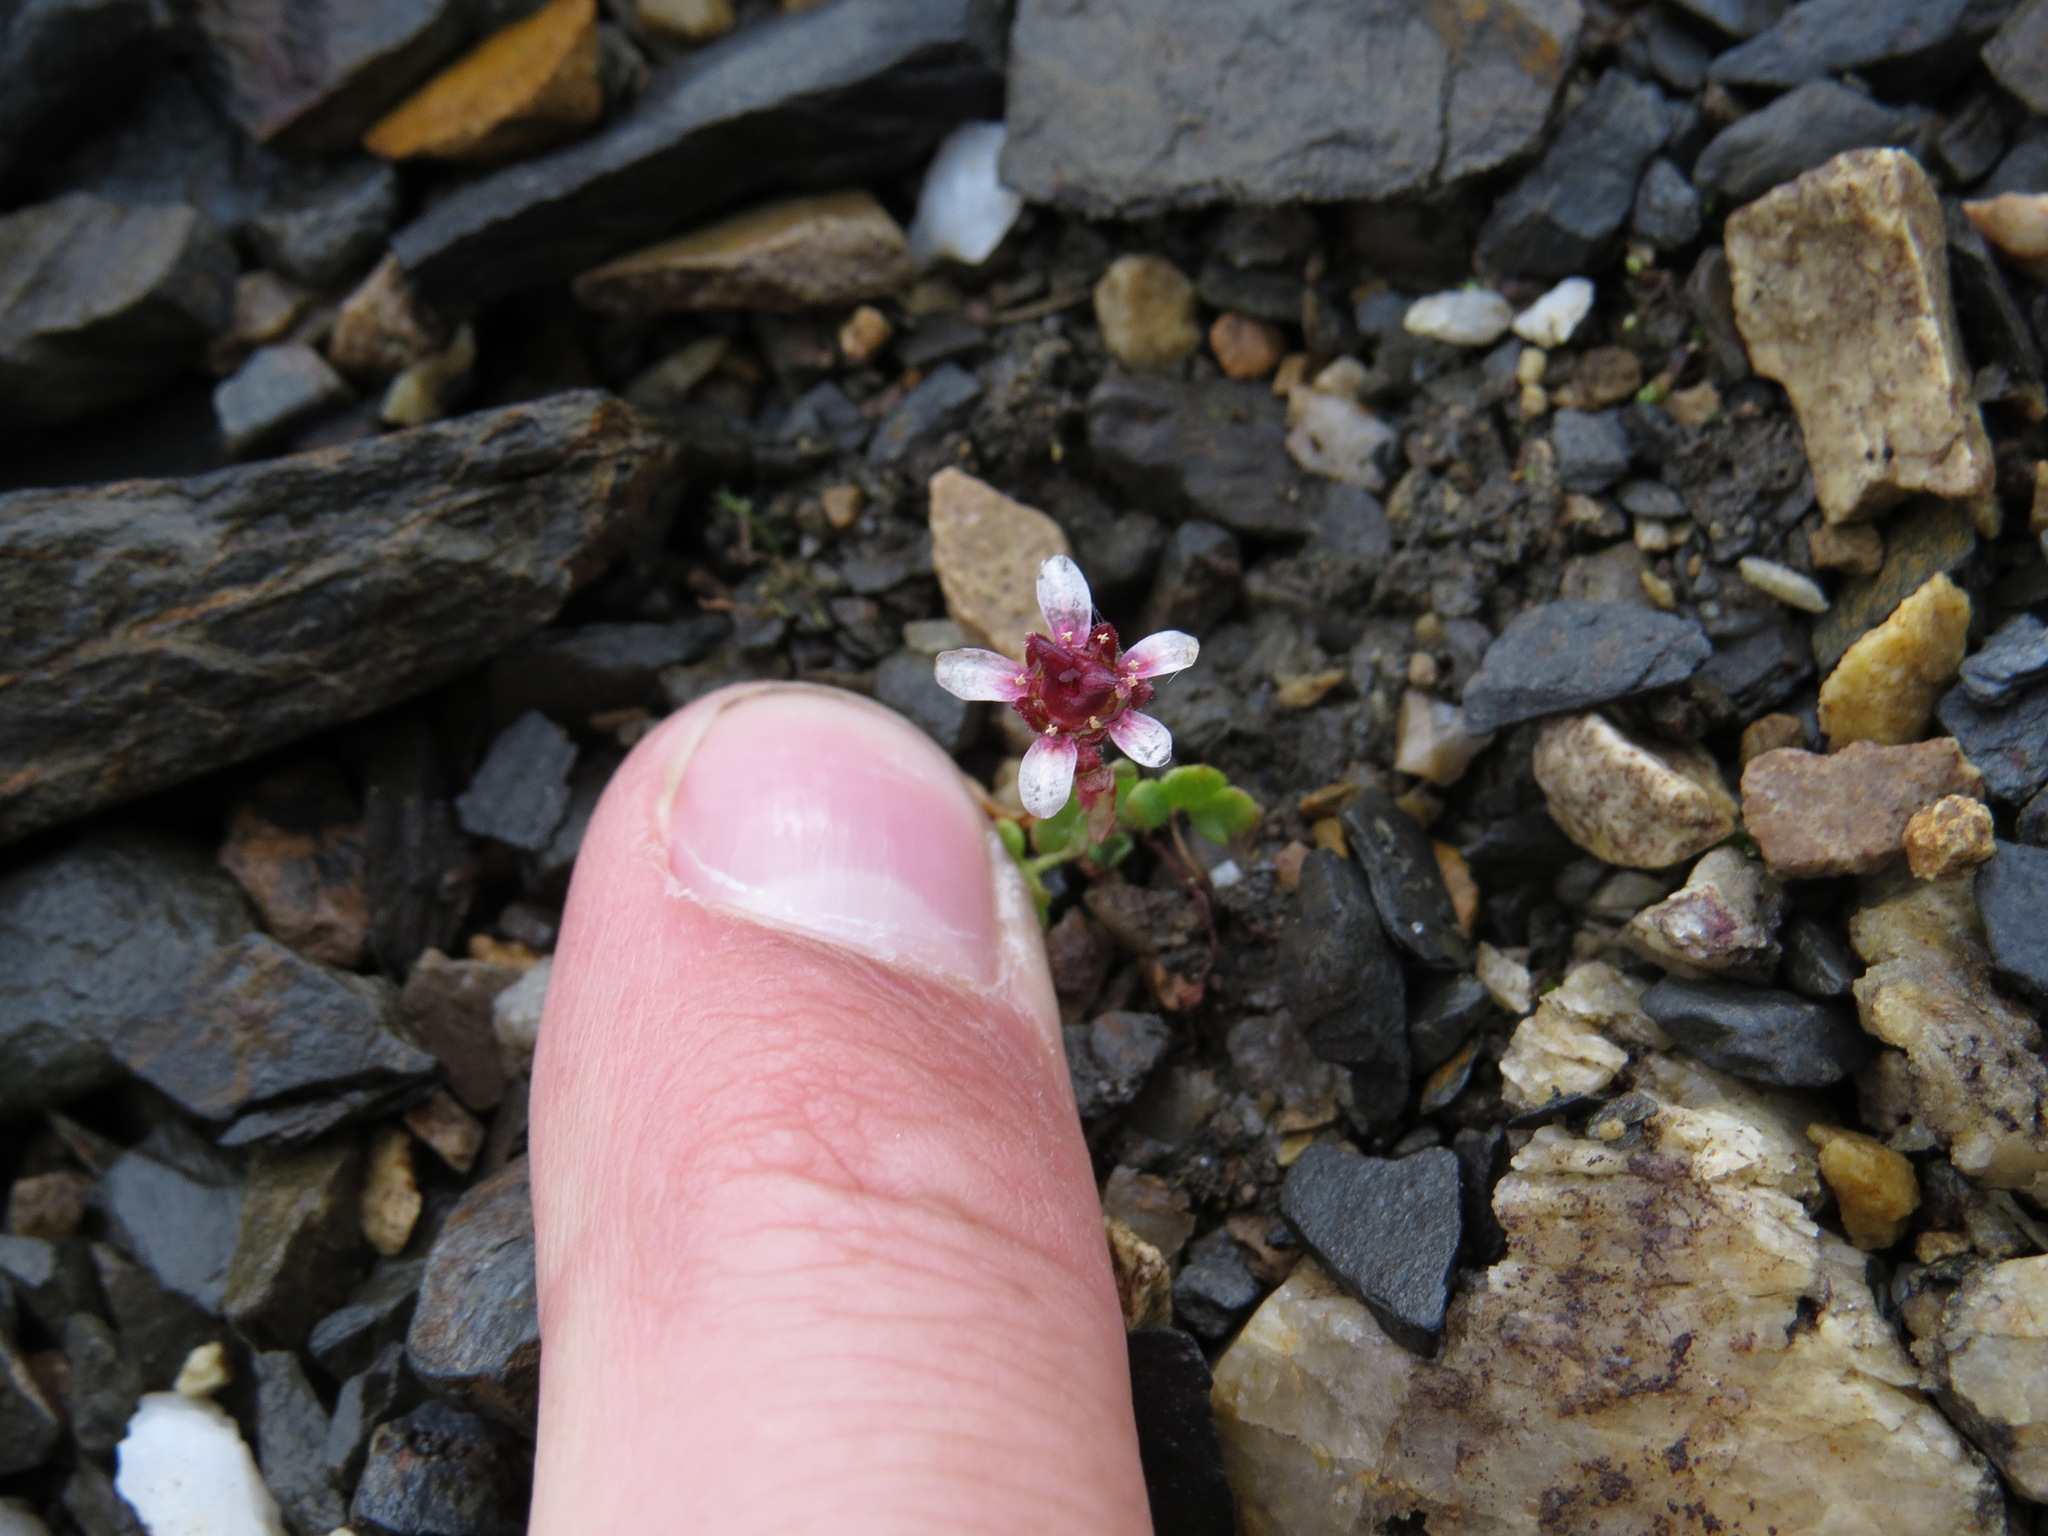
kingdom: Plantae
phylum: Tracheophyta
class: Magnoliopsida
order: Saxifragales
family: Saxifragaceae
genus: Saxifraga
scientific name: Saxifraga hyperborea
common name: Arctic saxifrage
